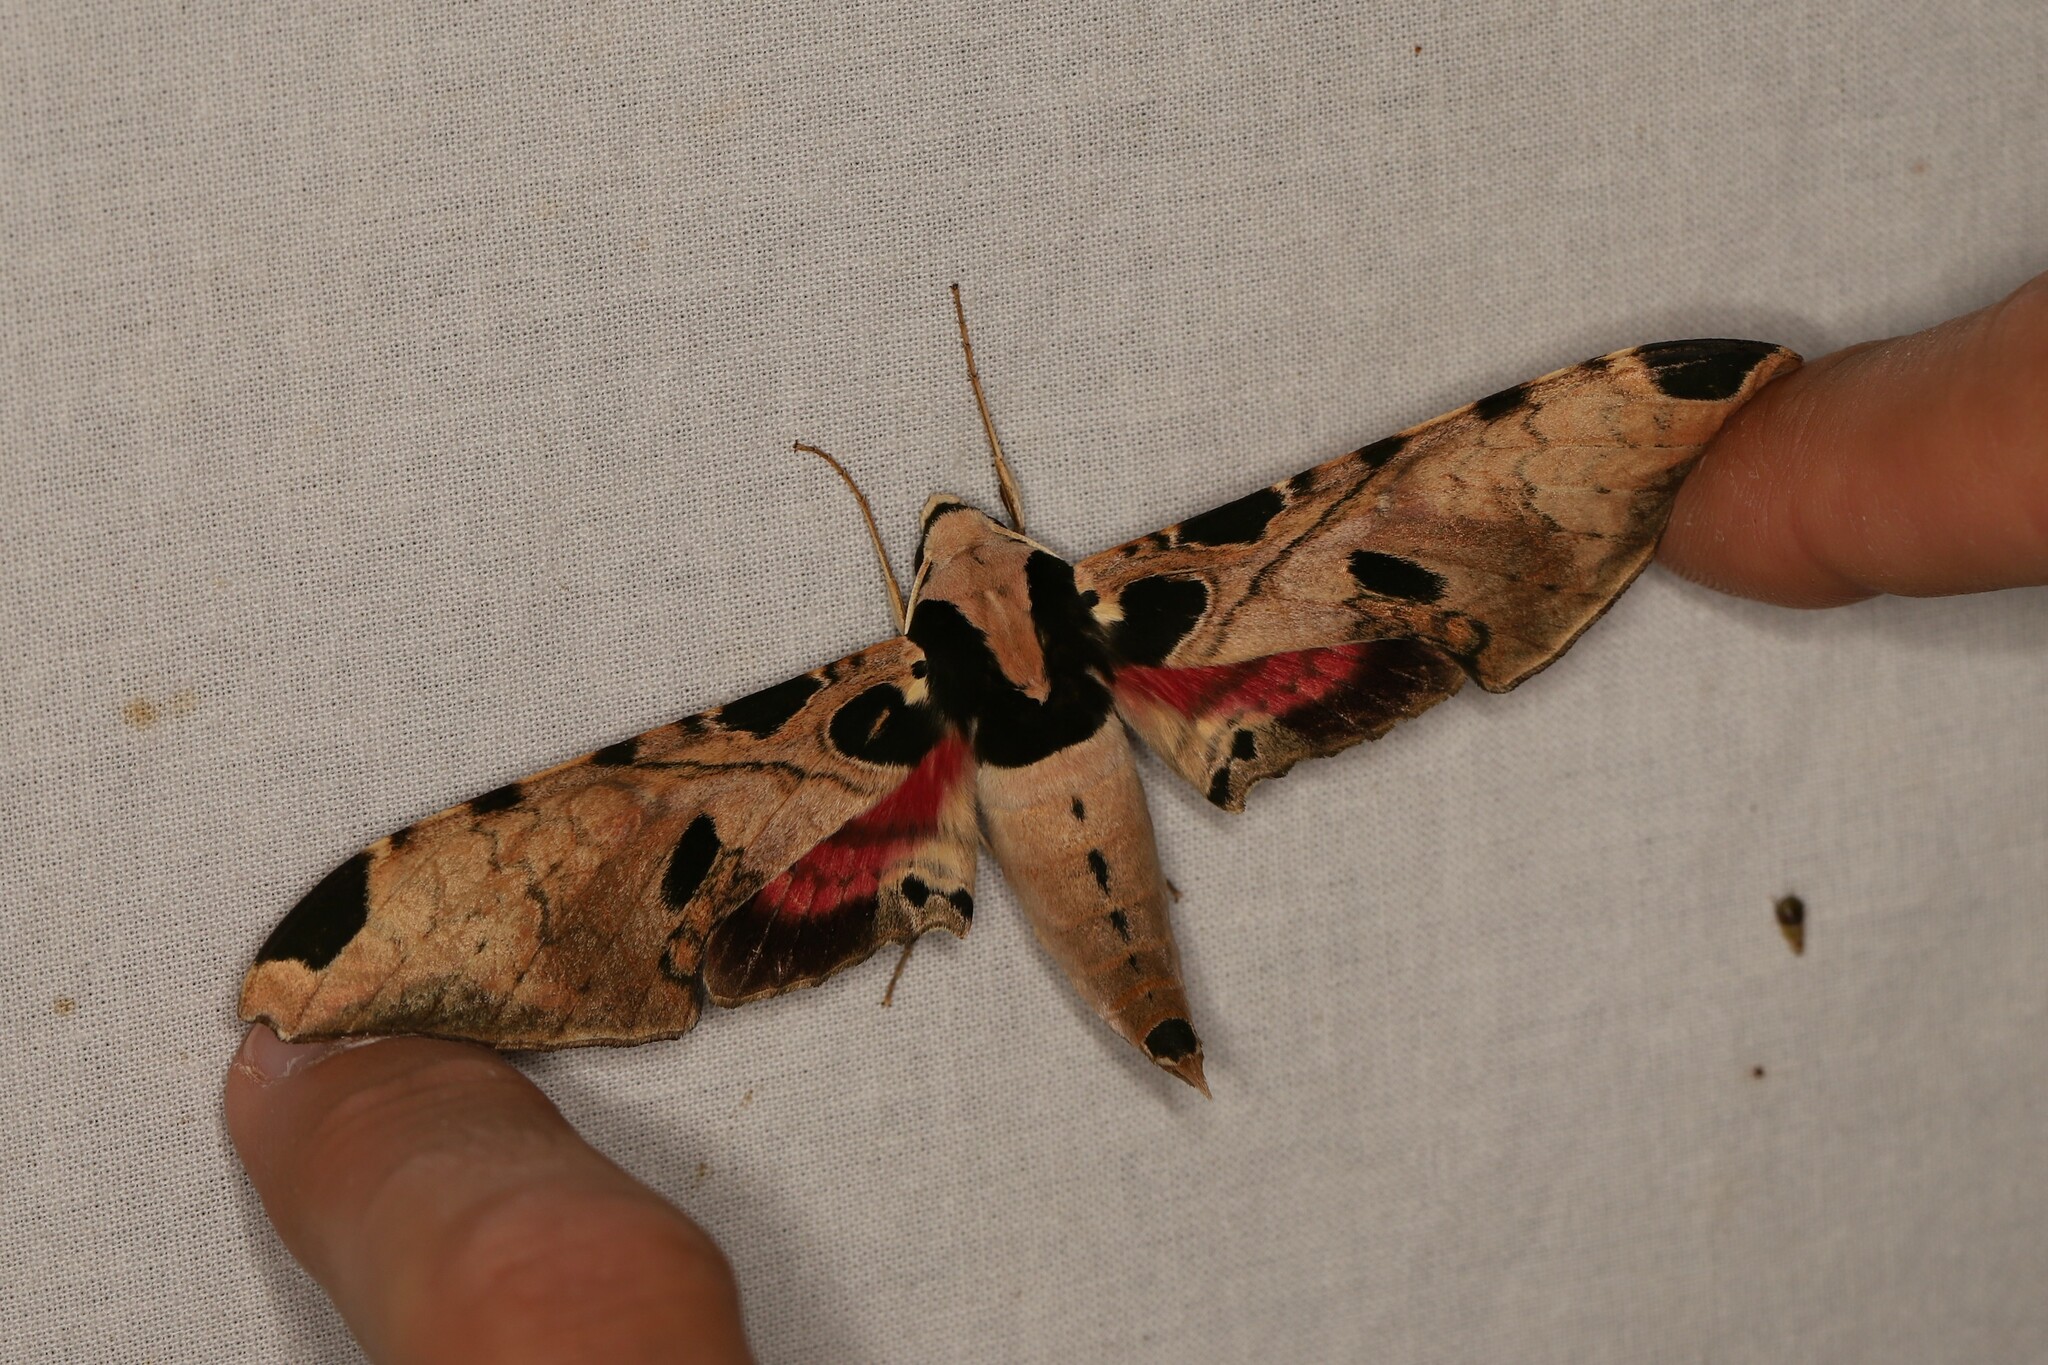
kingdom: Animalia
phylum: Arthropoda
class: Insecta
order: Lepidoptera
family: Sphingidae
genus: Adhemarius
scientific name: Adhemarius palmeri
